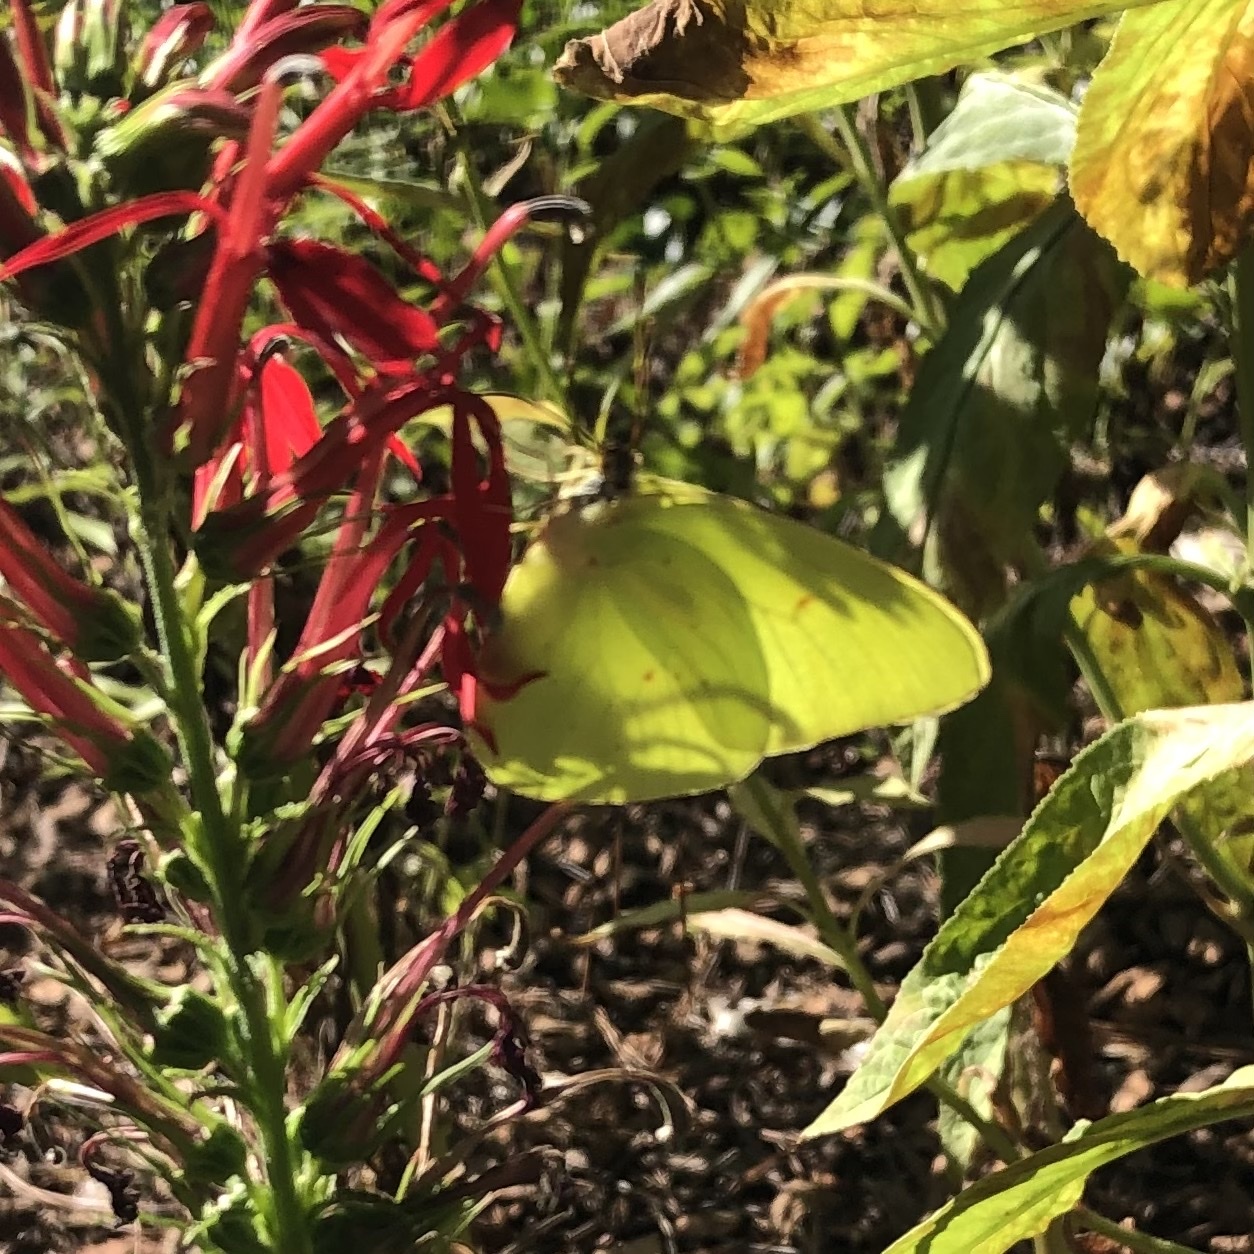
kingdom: Animalia
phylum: Arthropoda
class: Insecta
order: Lepidoptera
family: Pieridae
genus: Phoebis
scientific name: Phoebis sennae
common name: Cloudless sulphur
